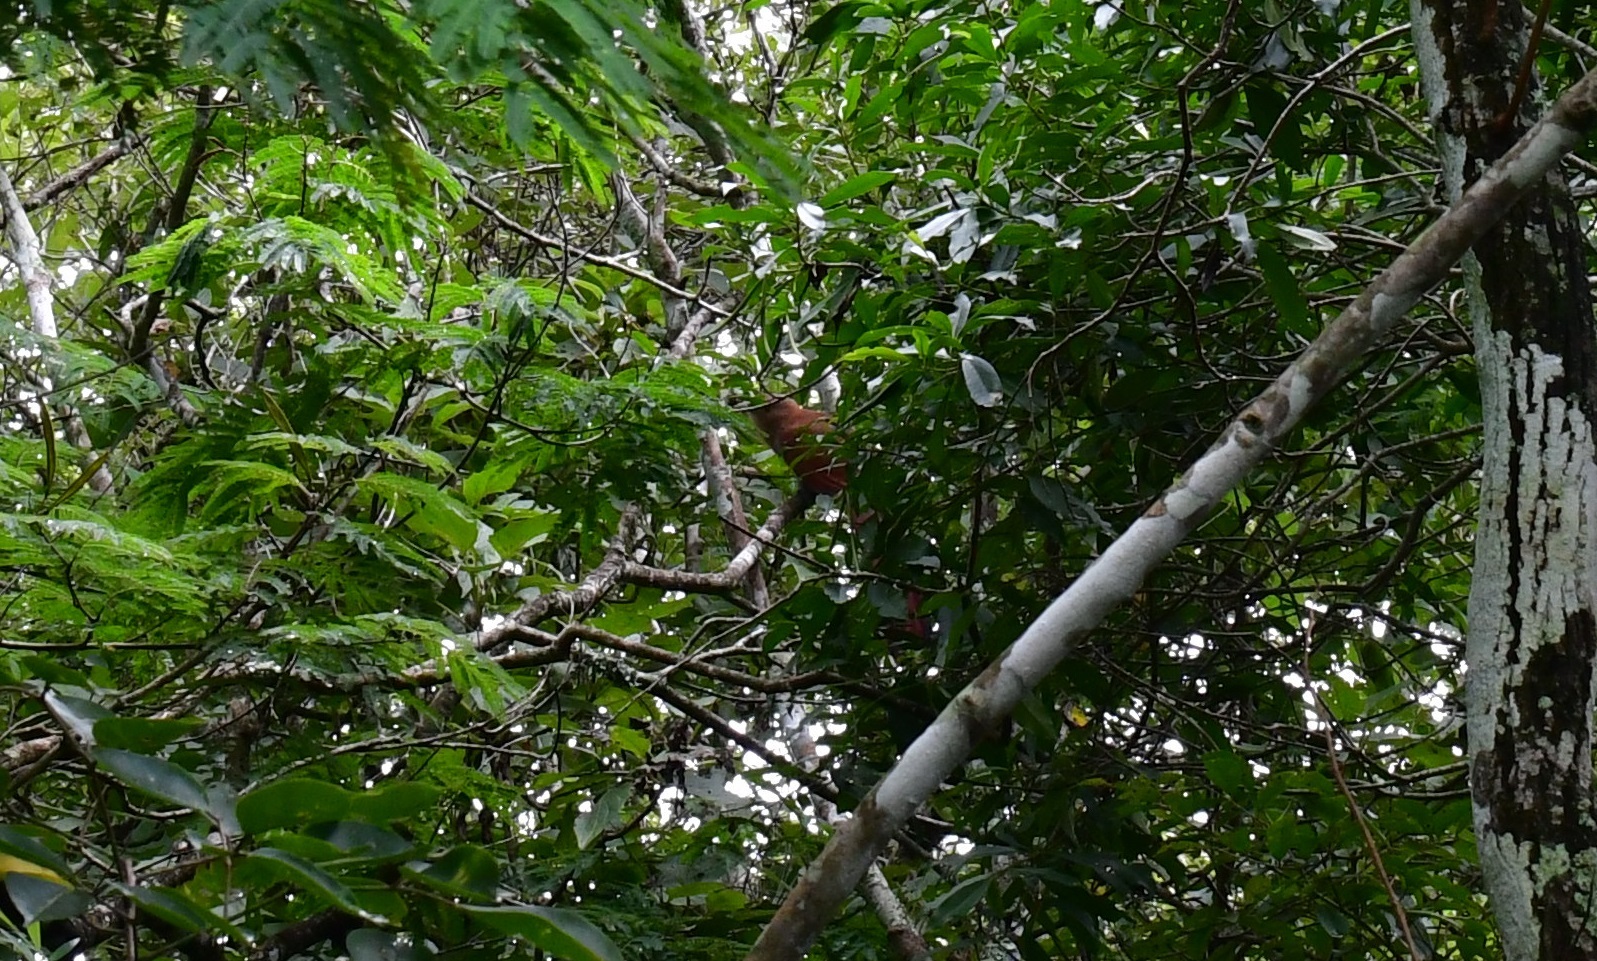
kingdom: Animalia
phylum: Chordata
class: Aves
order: Cuculiformes
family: Cuculidae
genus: Piaya
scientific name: Piaya cayana
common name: Squirrel cuckoo
